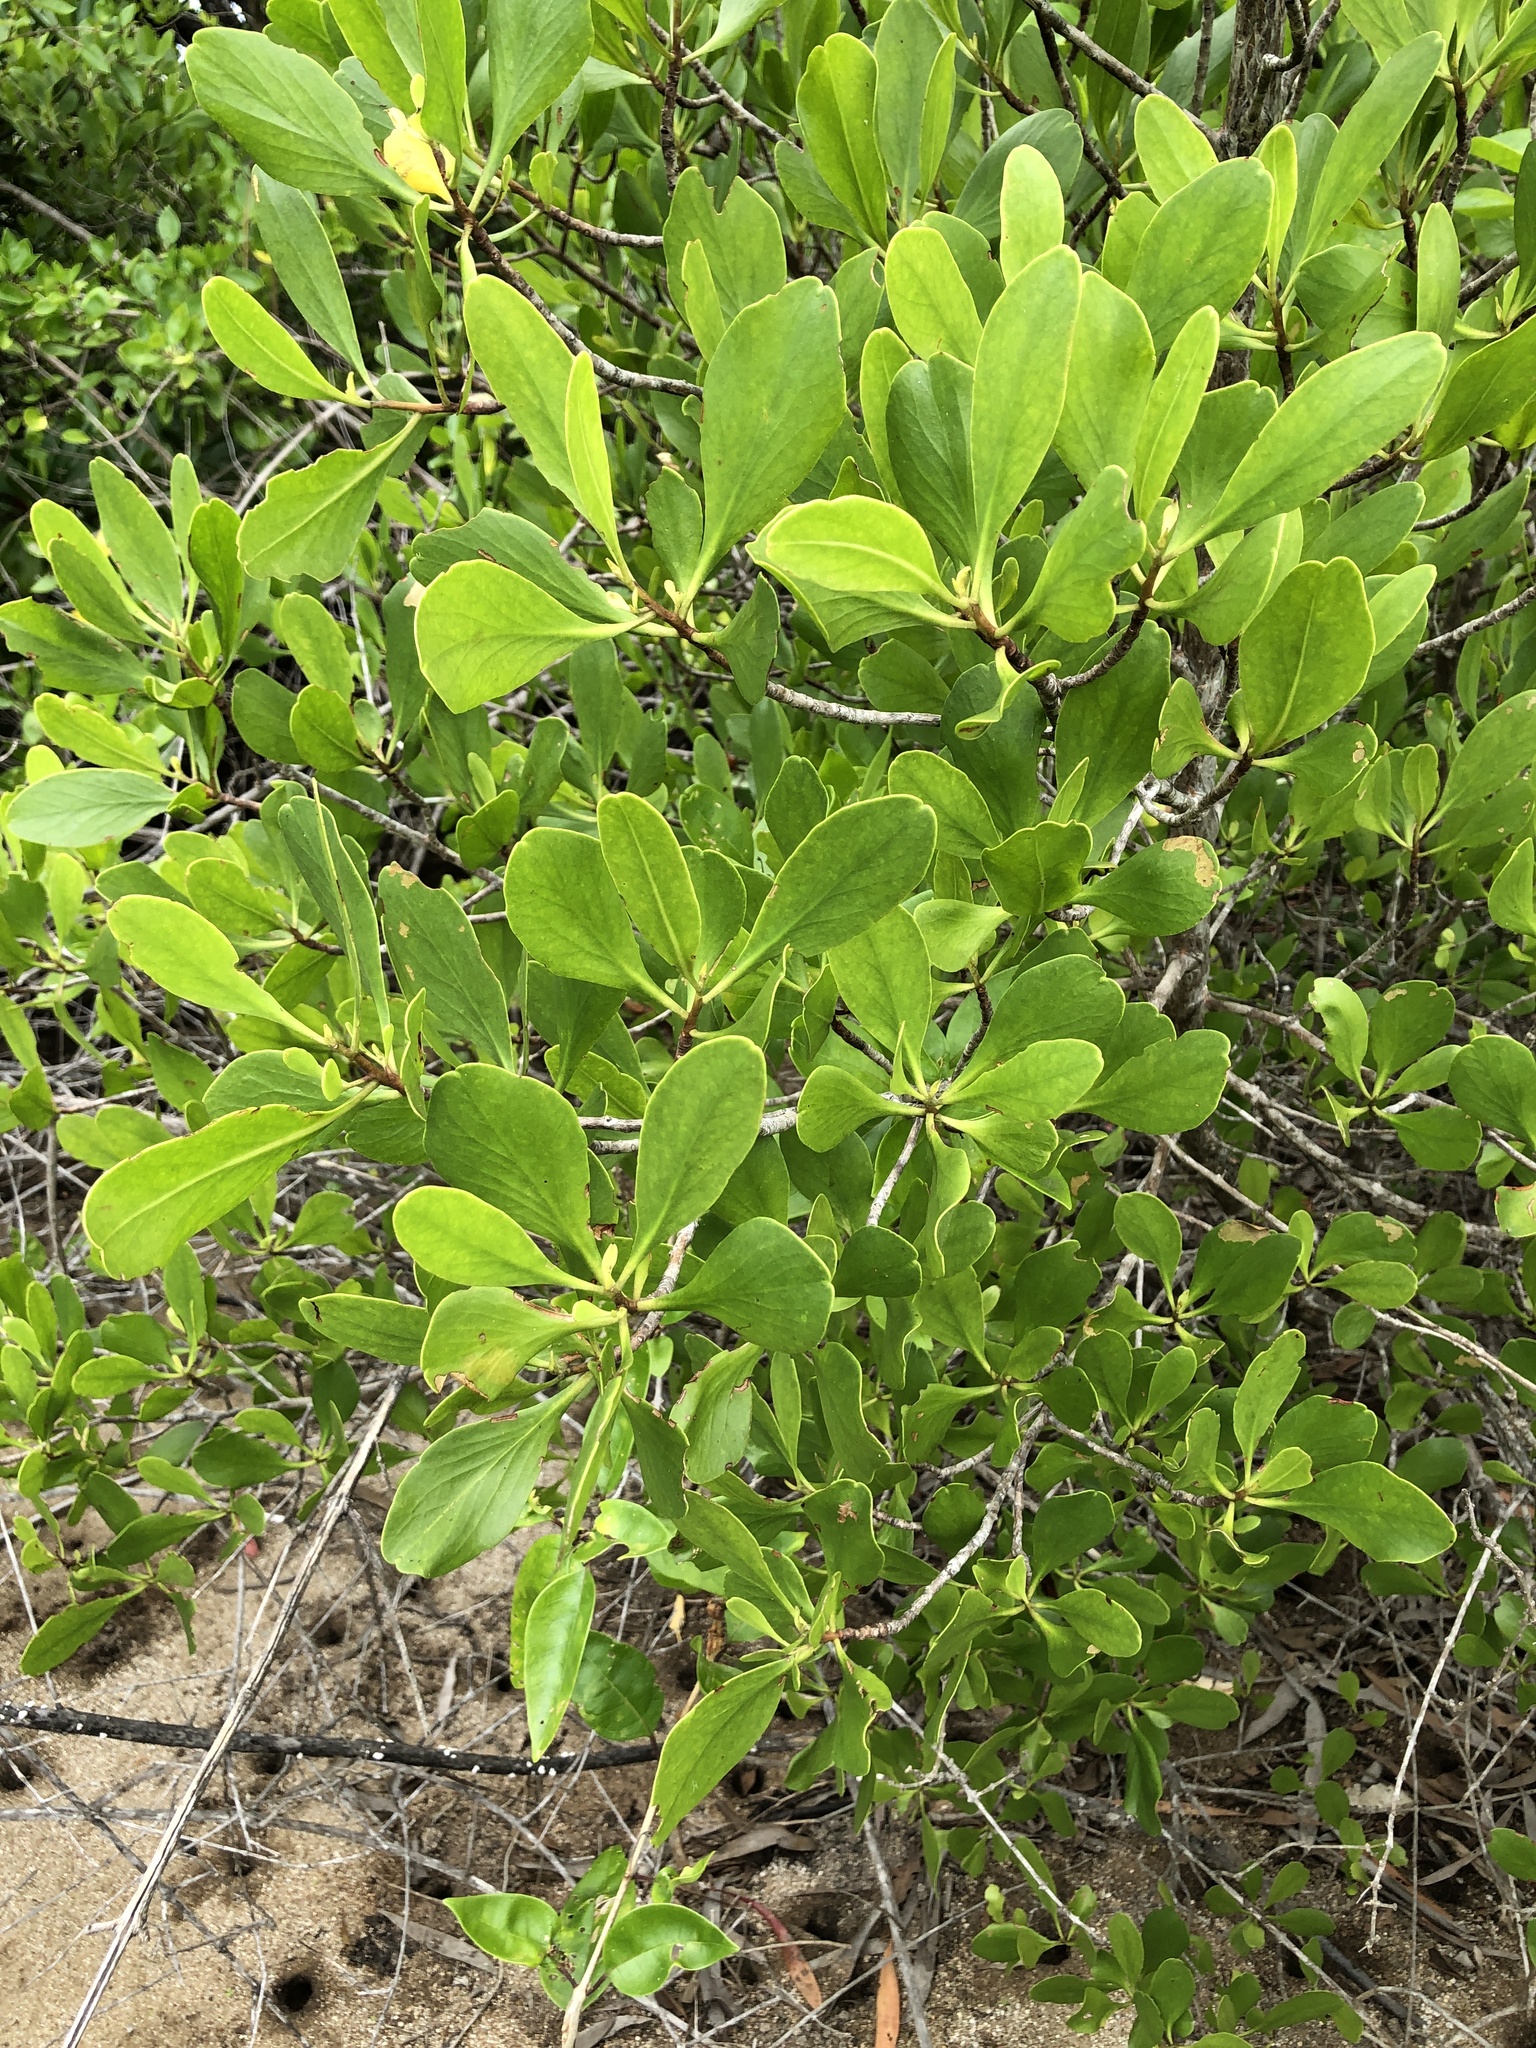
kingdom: Plantae
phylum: Tracheophyta
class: Magnoliopsida
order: Myrtales
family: Combretaceae
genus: Lumnitzera
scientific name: Lumnitzera racemosa
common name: White-flowered black mangrove
